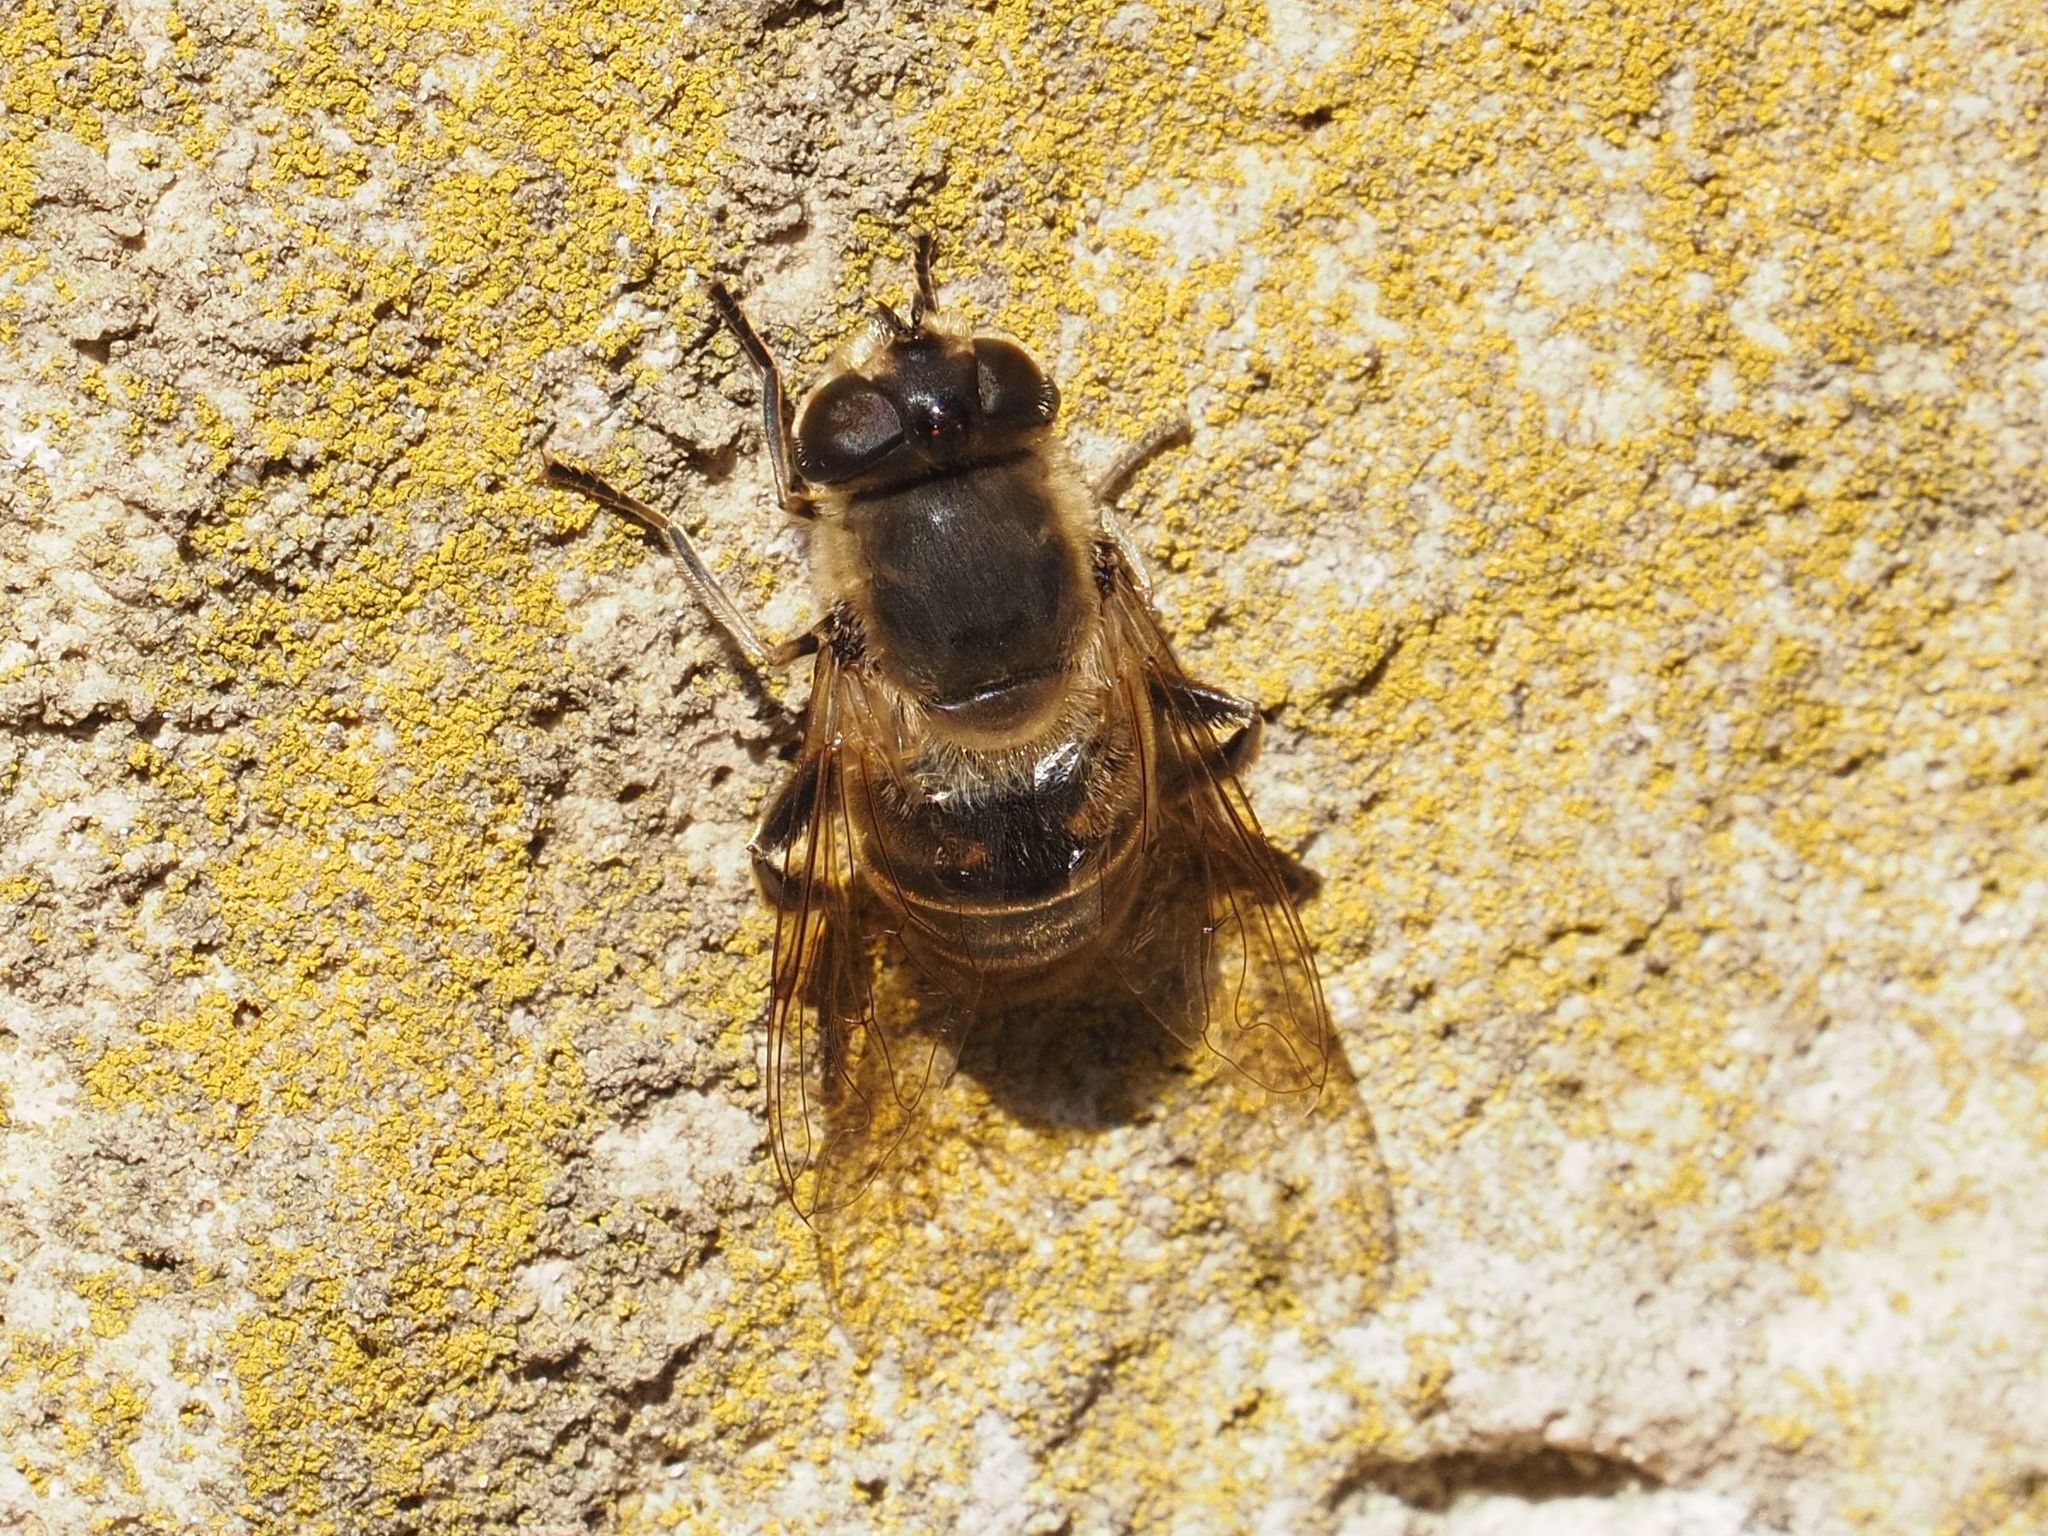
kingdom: Animalia
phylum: Arthropoda
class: Insecta
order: Diptera
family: Syrphidae
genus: Eristalis
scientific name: Eristalis tenax
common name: Drone fly
